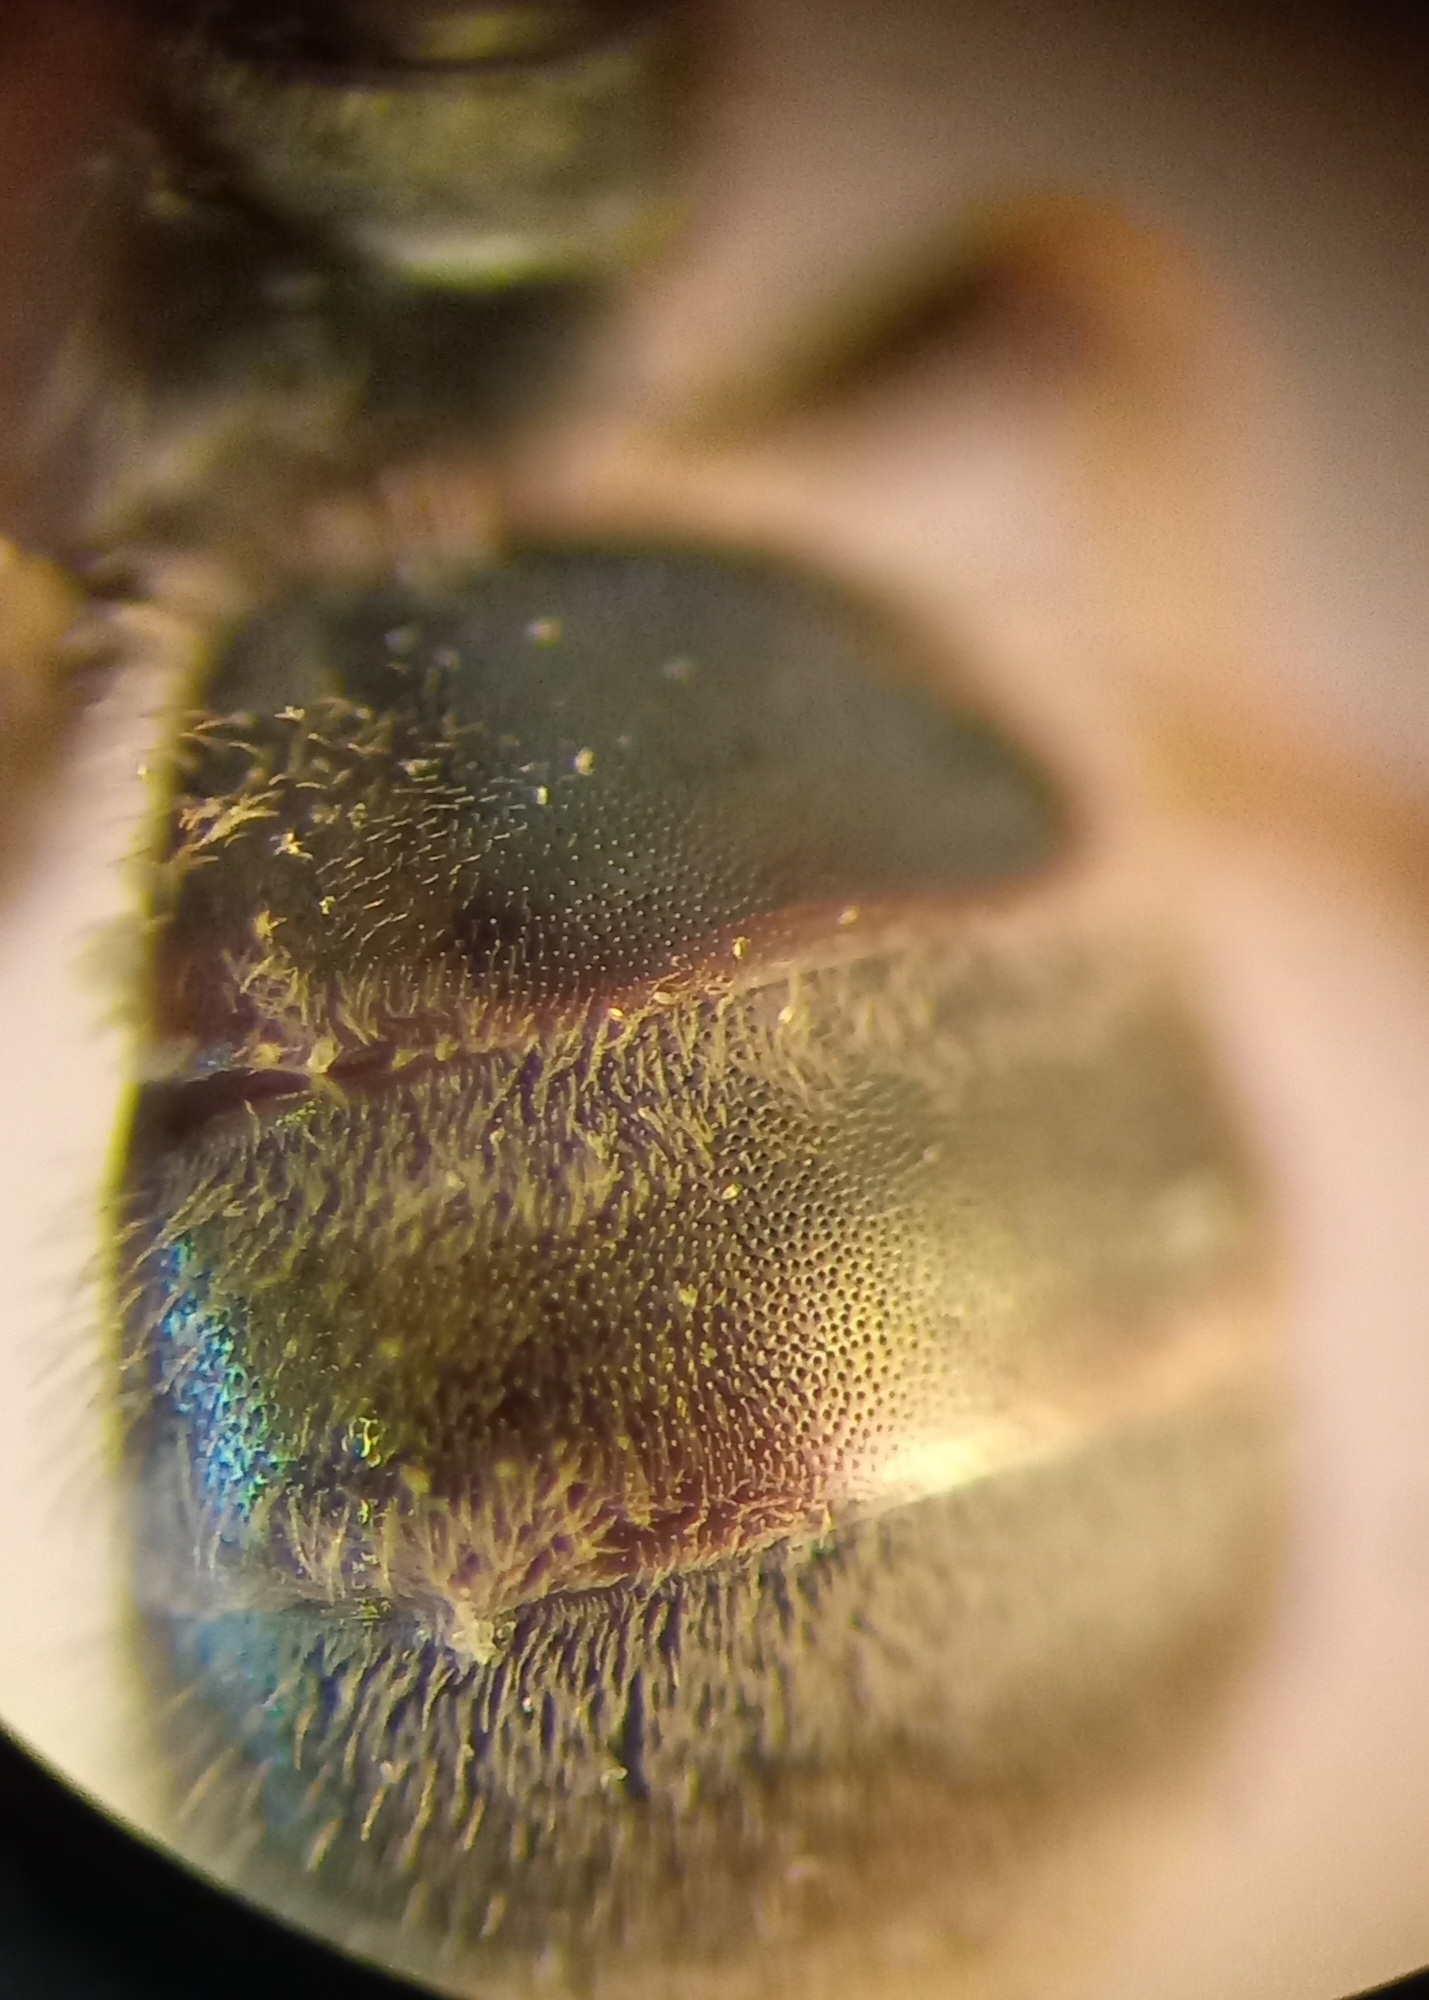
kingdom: Animalia
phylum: Arthropoda
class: Insecta
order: Hymenoptera
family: Halictidae
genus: Halictus
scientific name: Halictus
